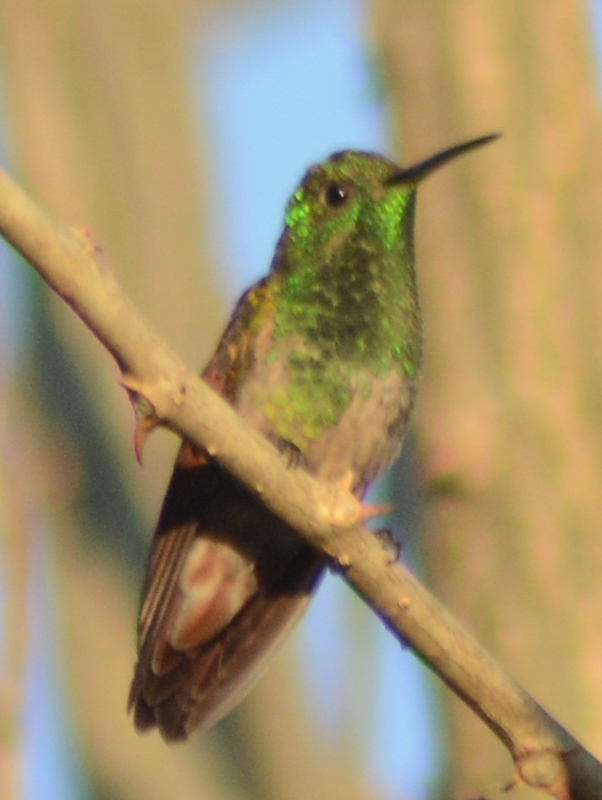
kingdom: Animalia
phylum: Chordata
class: Aves
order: Apodiformes
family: Trochilidae
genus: Saucerottia
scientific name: Saucerottia beryllina
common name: Berylline hummingbird
